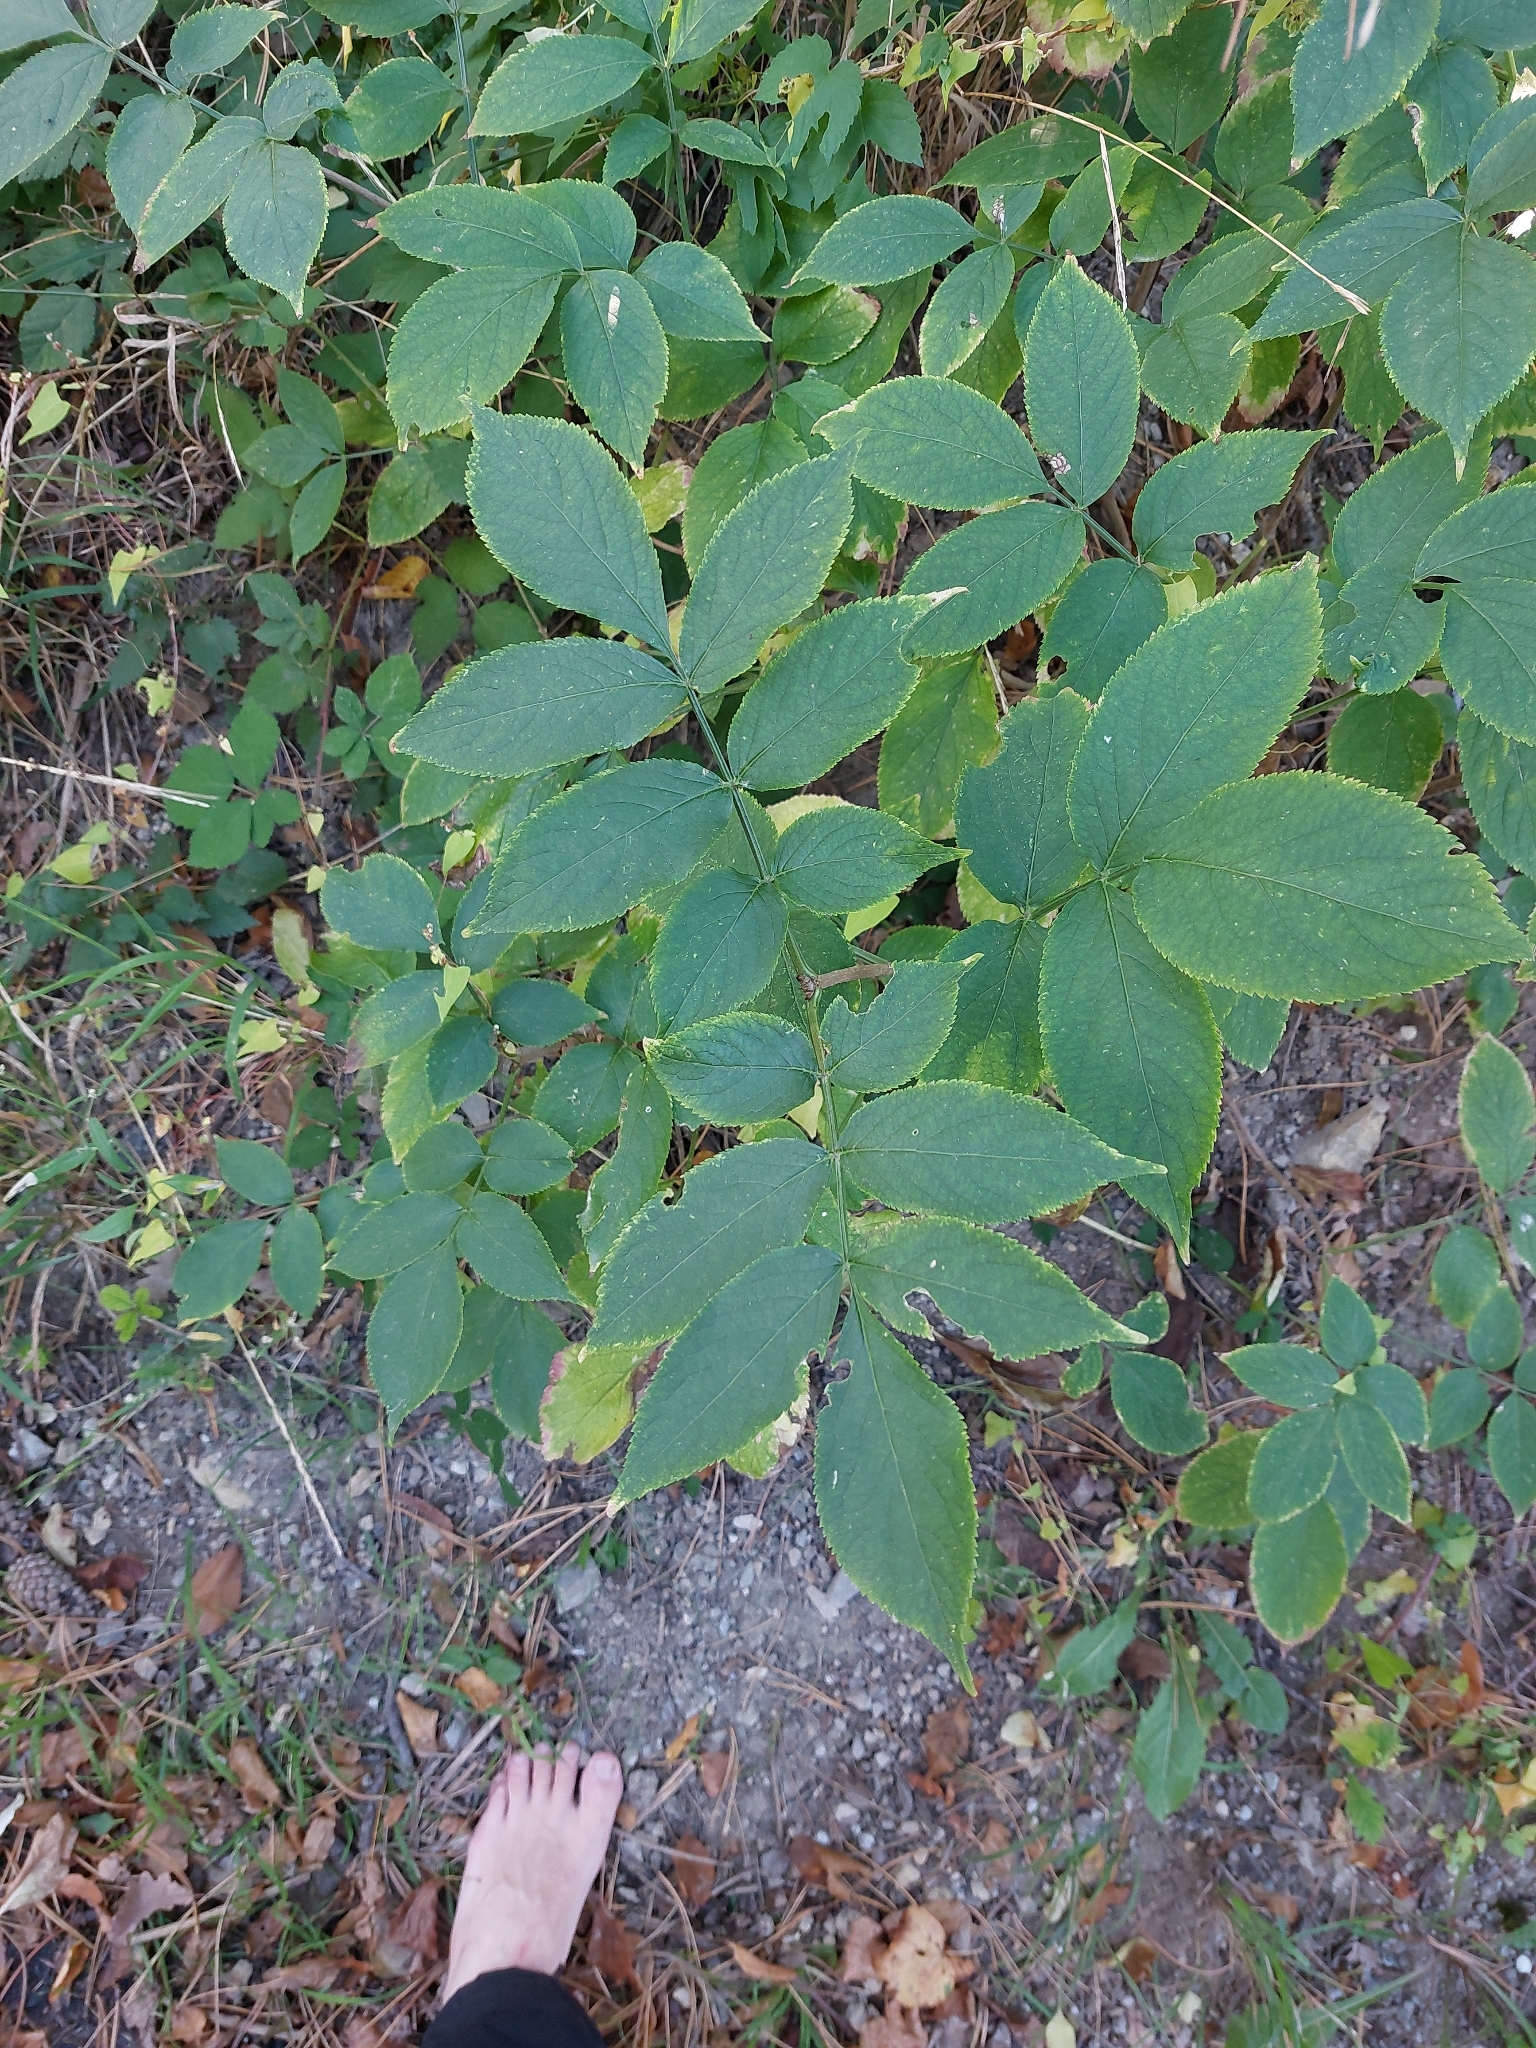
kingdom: Plantae
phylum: Tracheophyta
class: Magnoliopsida
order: Dipsacales
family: Viburnaceae
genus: Sambucus
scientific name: Sambucus nigra
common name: Elder
